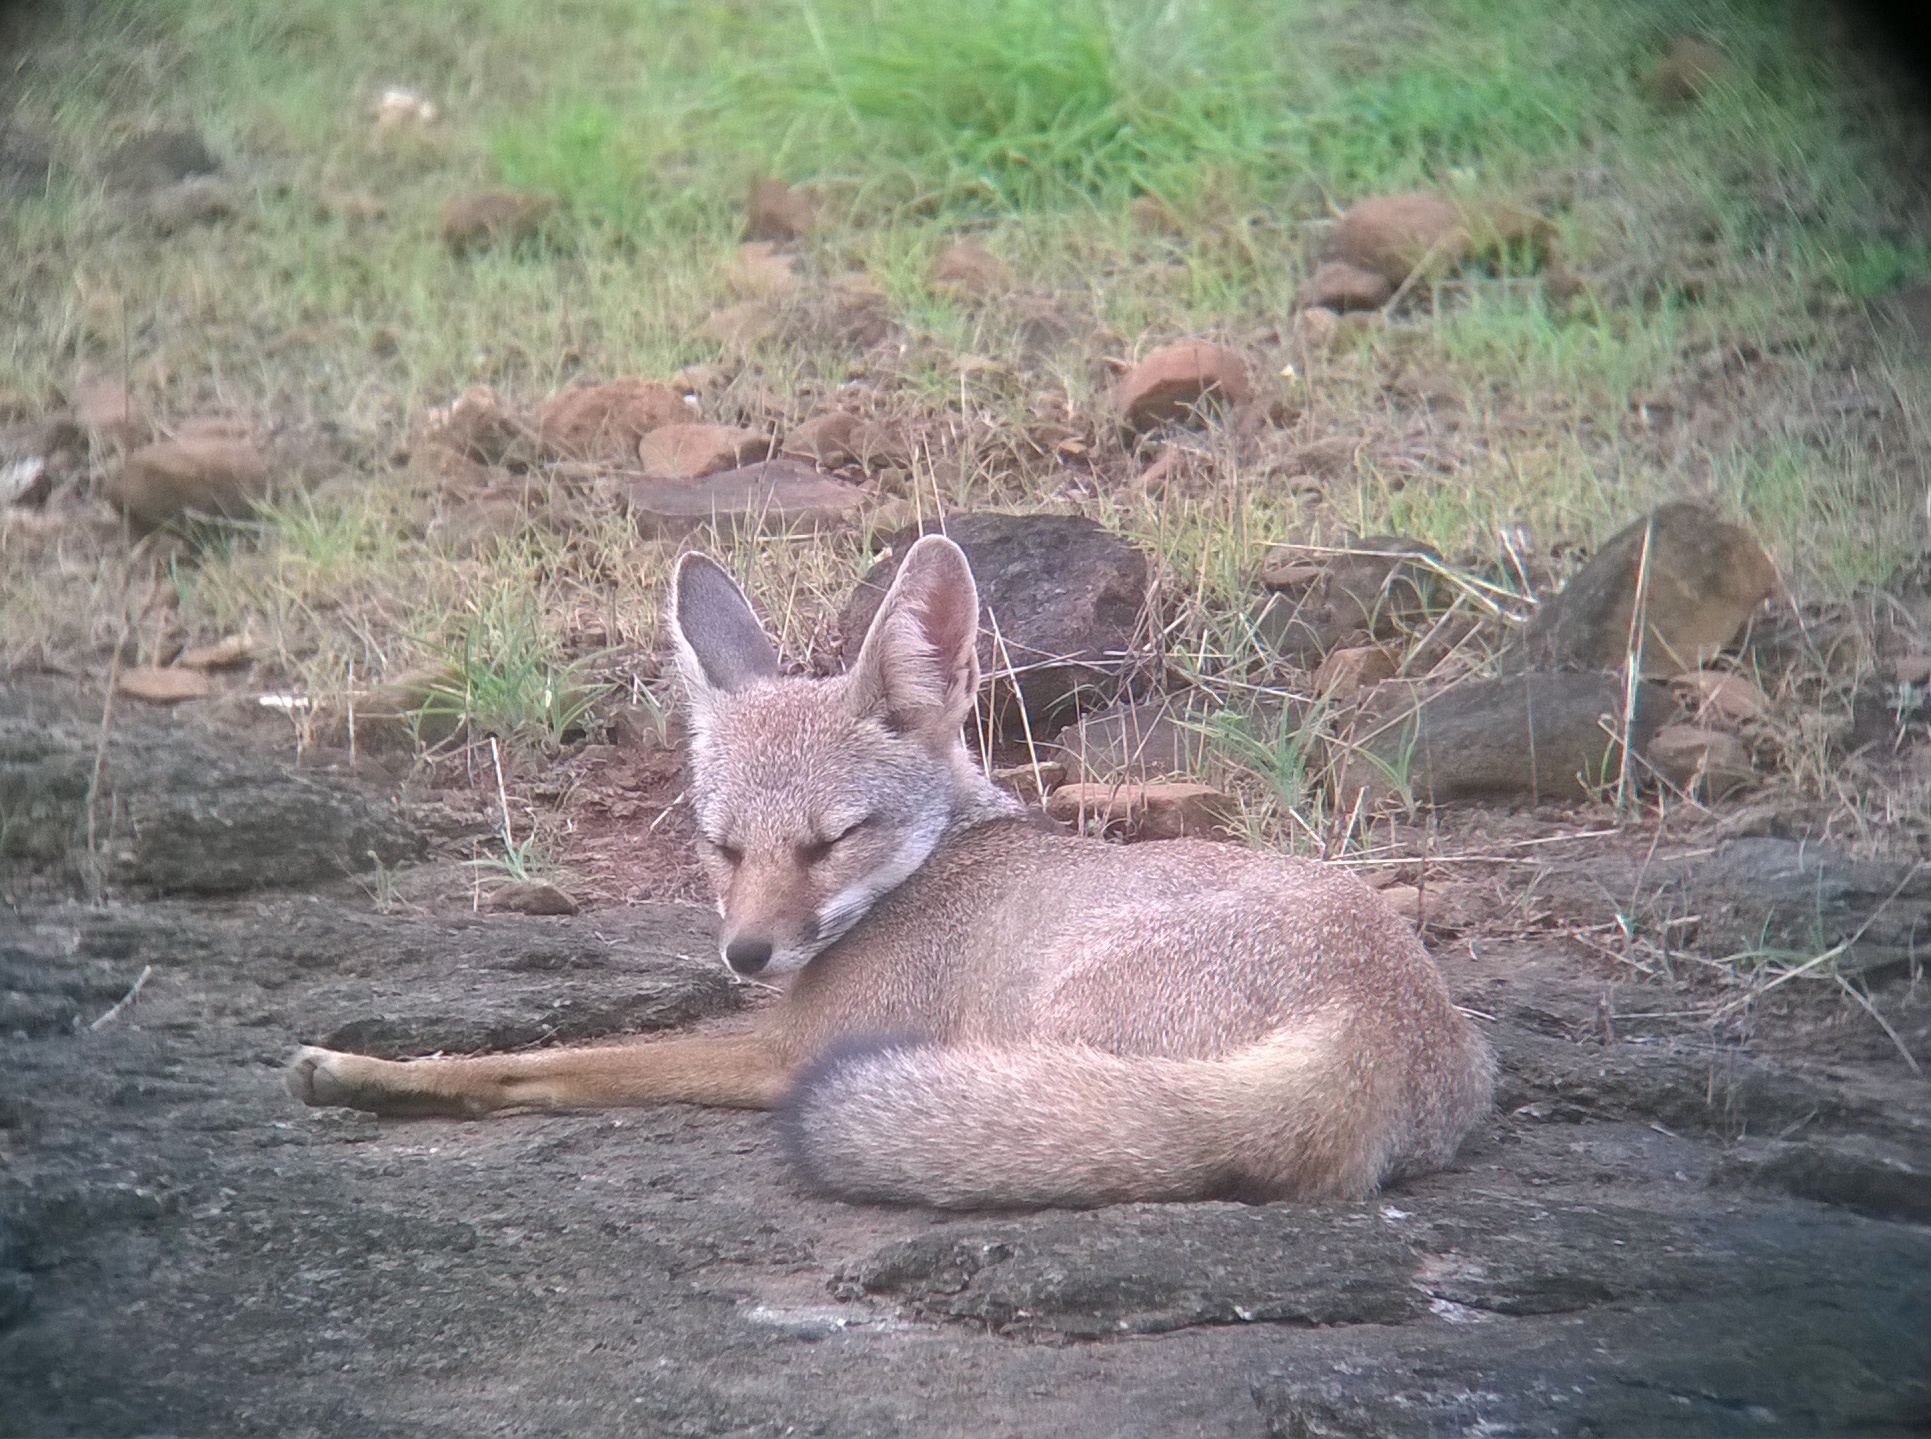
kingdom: Animalia
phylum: Chordata
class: Mammalia
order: Carnivora
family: Canidae
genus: Vulpes
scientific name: Vulpes bengalensis
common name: Bengal fox
